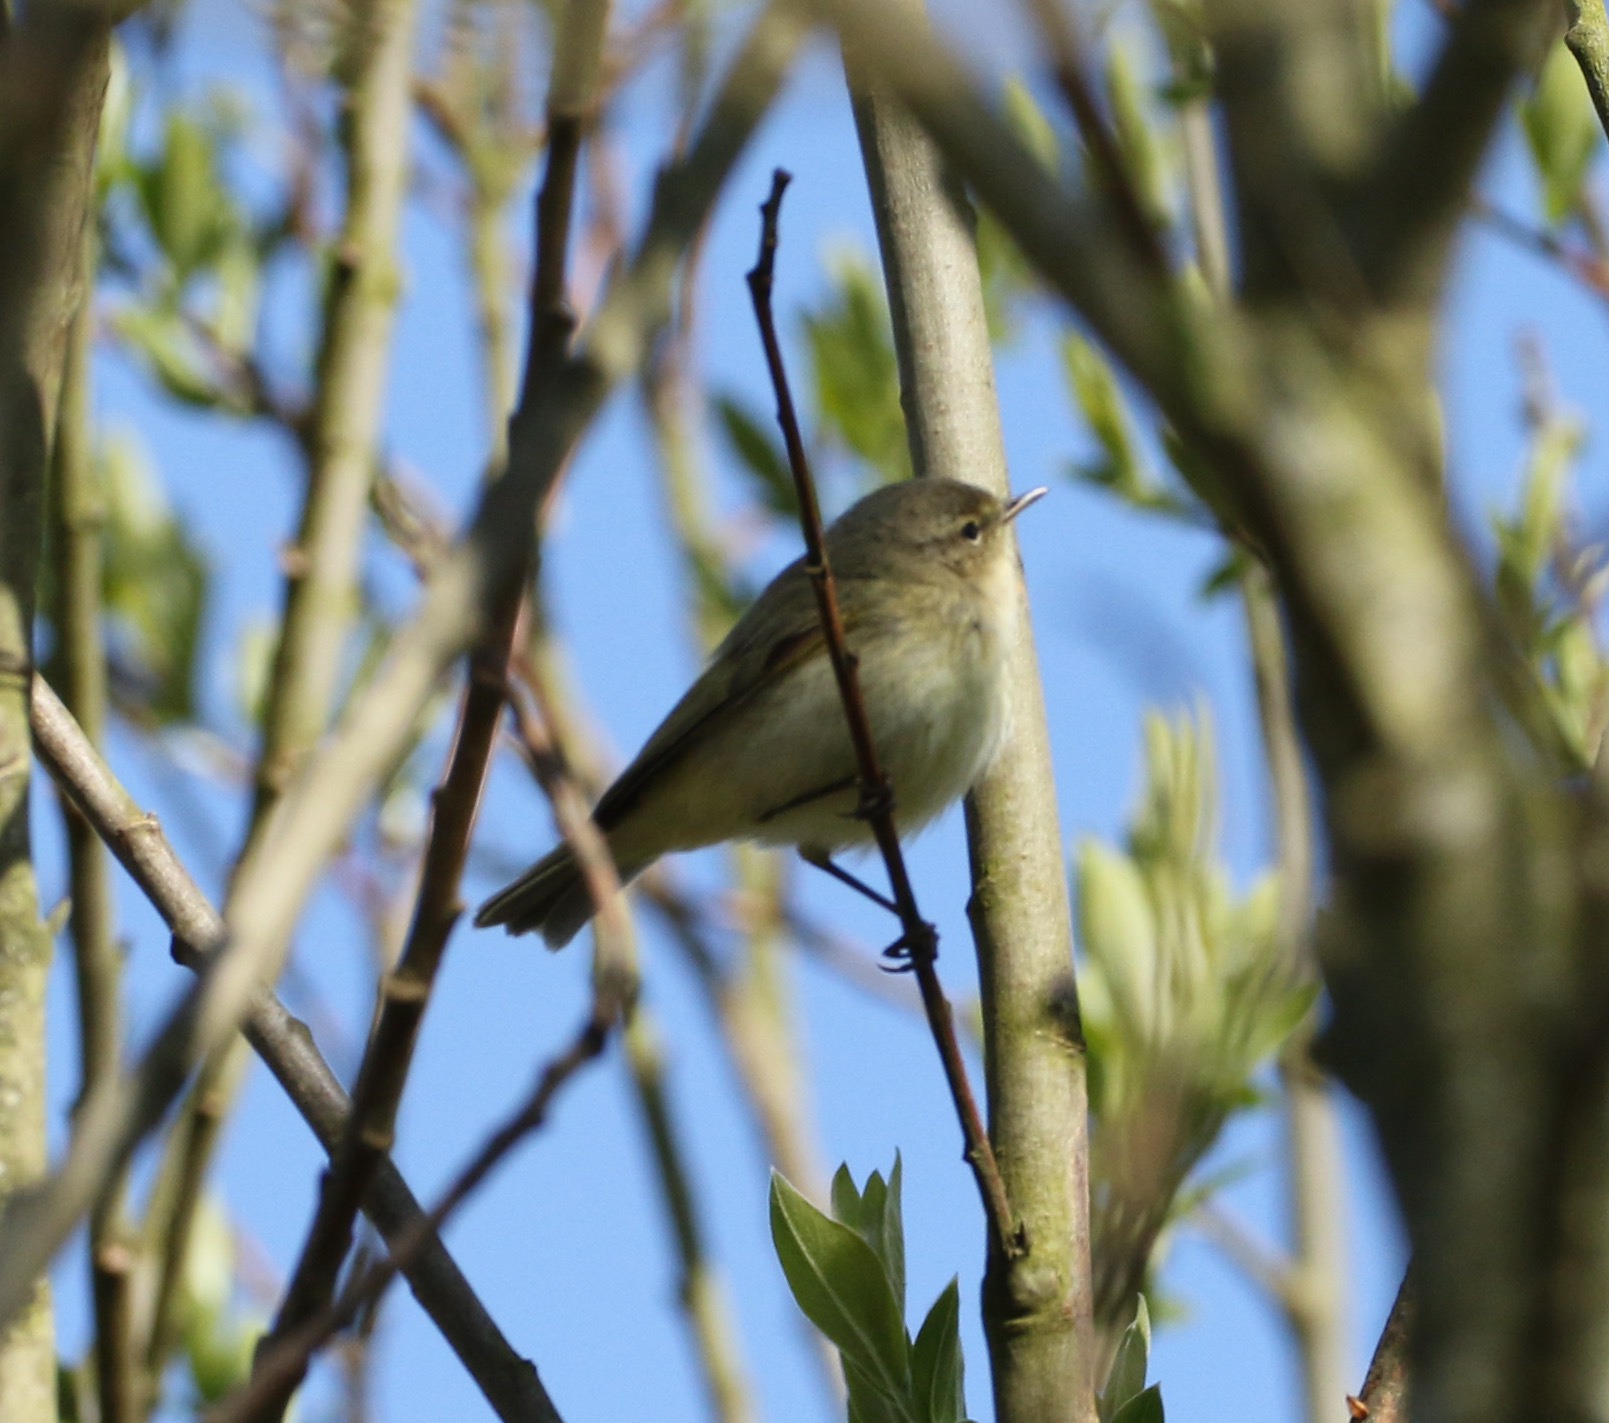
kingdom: Animalia
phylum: Chordata
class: Aves
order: Passeriformes
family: Phylloscopidae
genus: Phylloscopus
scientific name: Phylloscopus collybita
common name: Common chiffchaff
